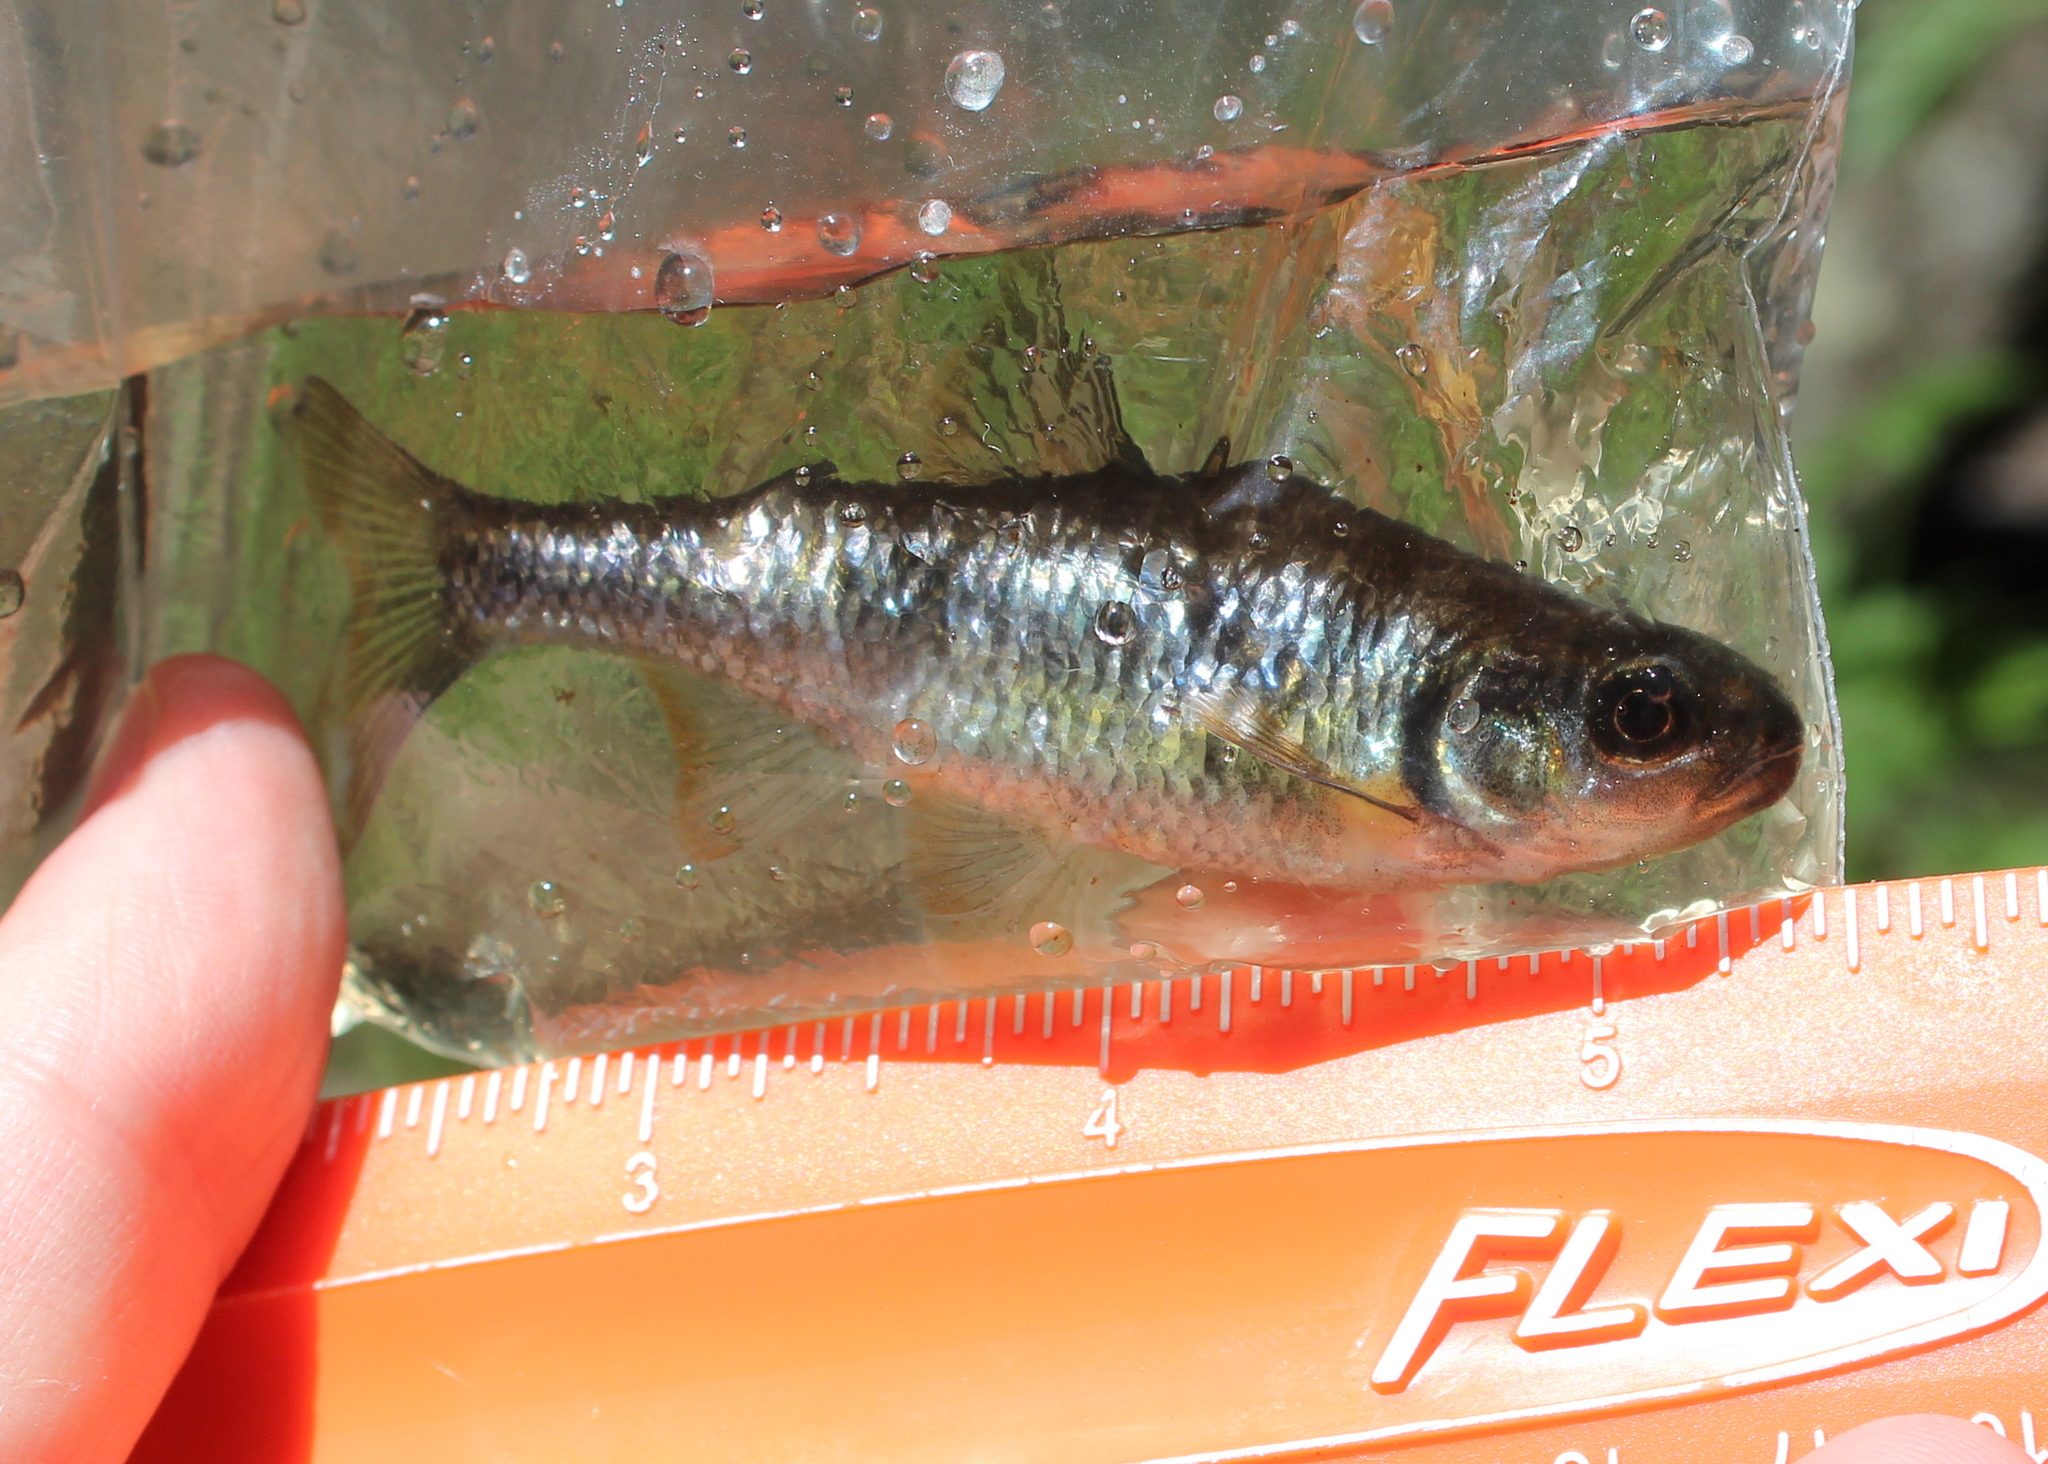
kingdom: Animalia
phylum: Chordata
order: Cypriniformes
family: Cyprinidae
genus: Luxilus
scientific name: Luxilus cornutus
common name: Common shiner
